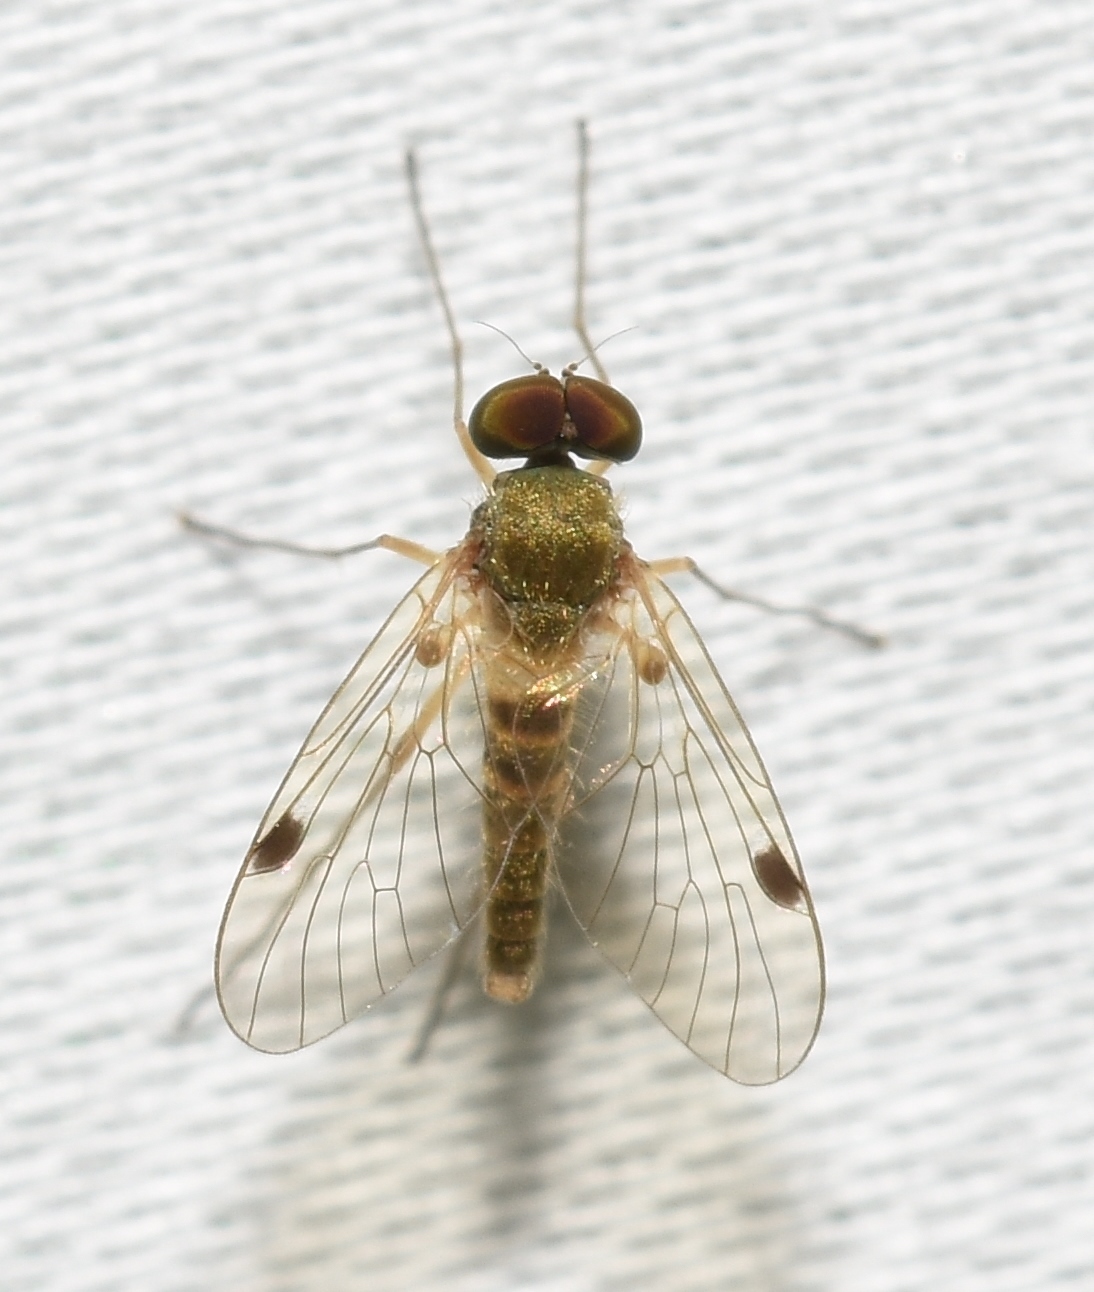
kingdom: Animalia
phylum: Arthropoda
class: Insecta
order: Diptera
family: Rhagionidae
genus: Chrysopilus
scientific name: Chrysopilus modestus
